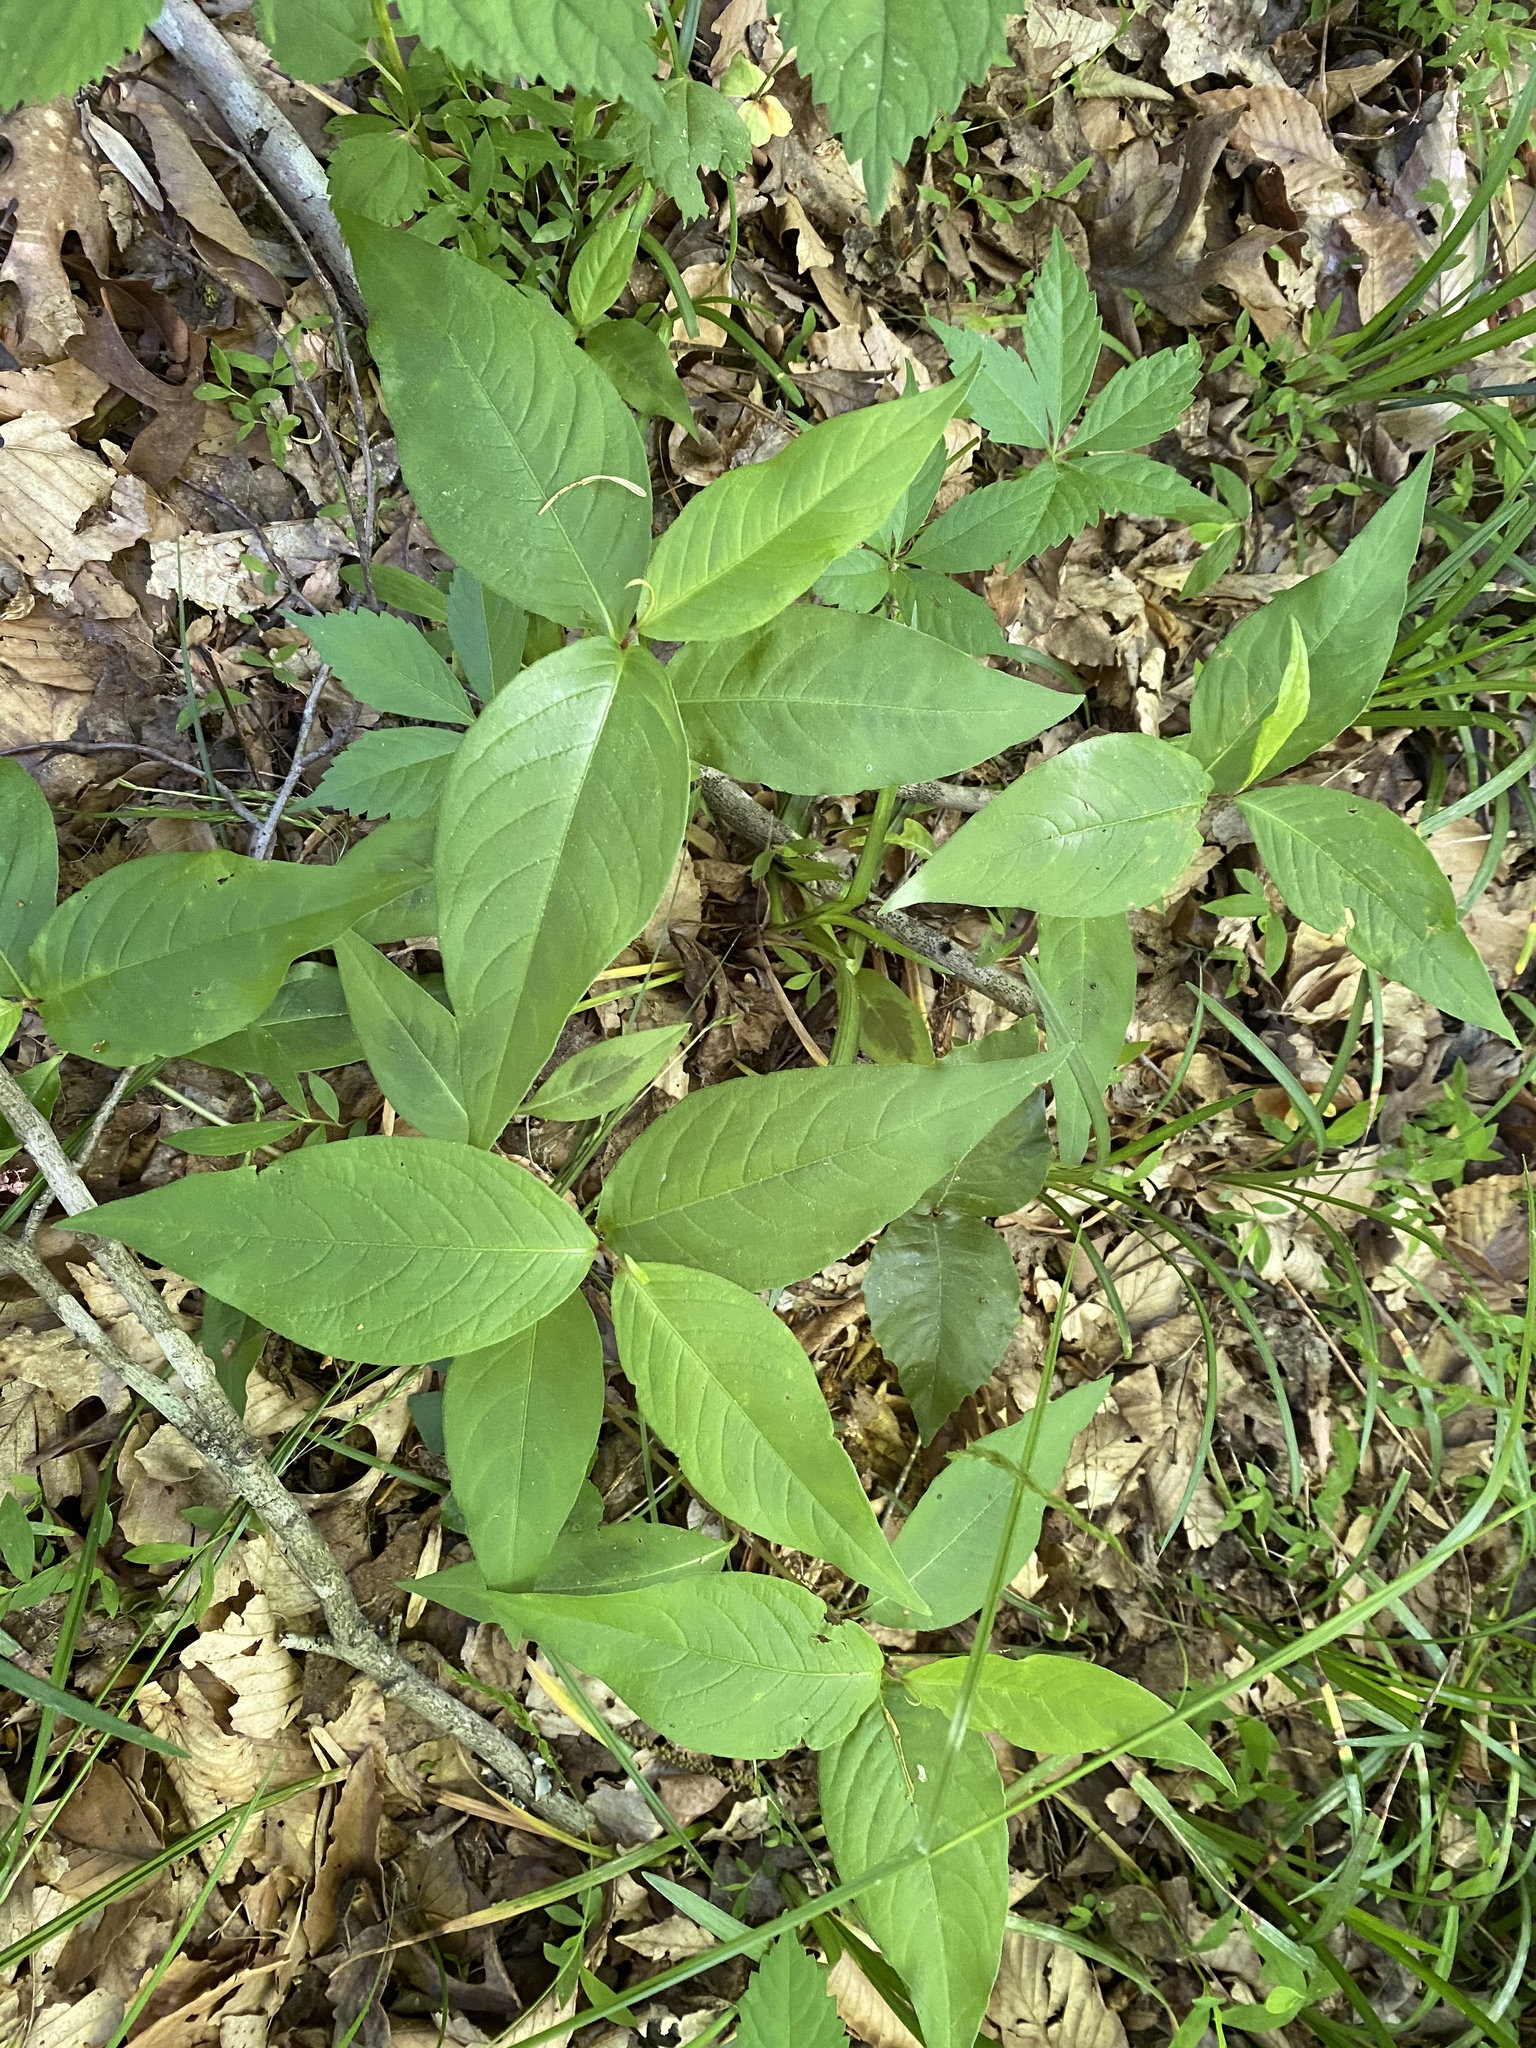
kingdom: Plantae
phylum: Tracheophyta
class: Magnoliopsida
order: Caryophyllales
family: Polygonaceae
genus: Persicaria
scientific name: Persicaria virginiana
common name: Jumpseed
